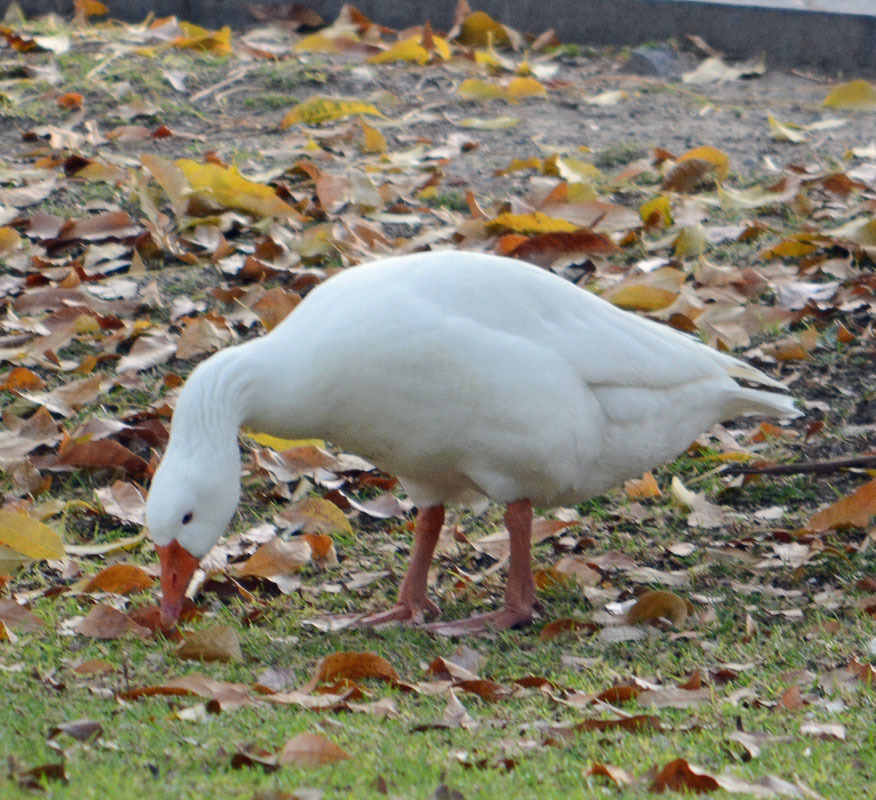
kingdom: Animalia
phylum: Chordata
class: Aves
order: Anseriformes
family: Anatidae
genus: Anser
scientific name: Anser anser
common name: Greylag goose
